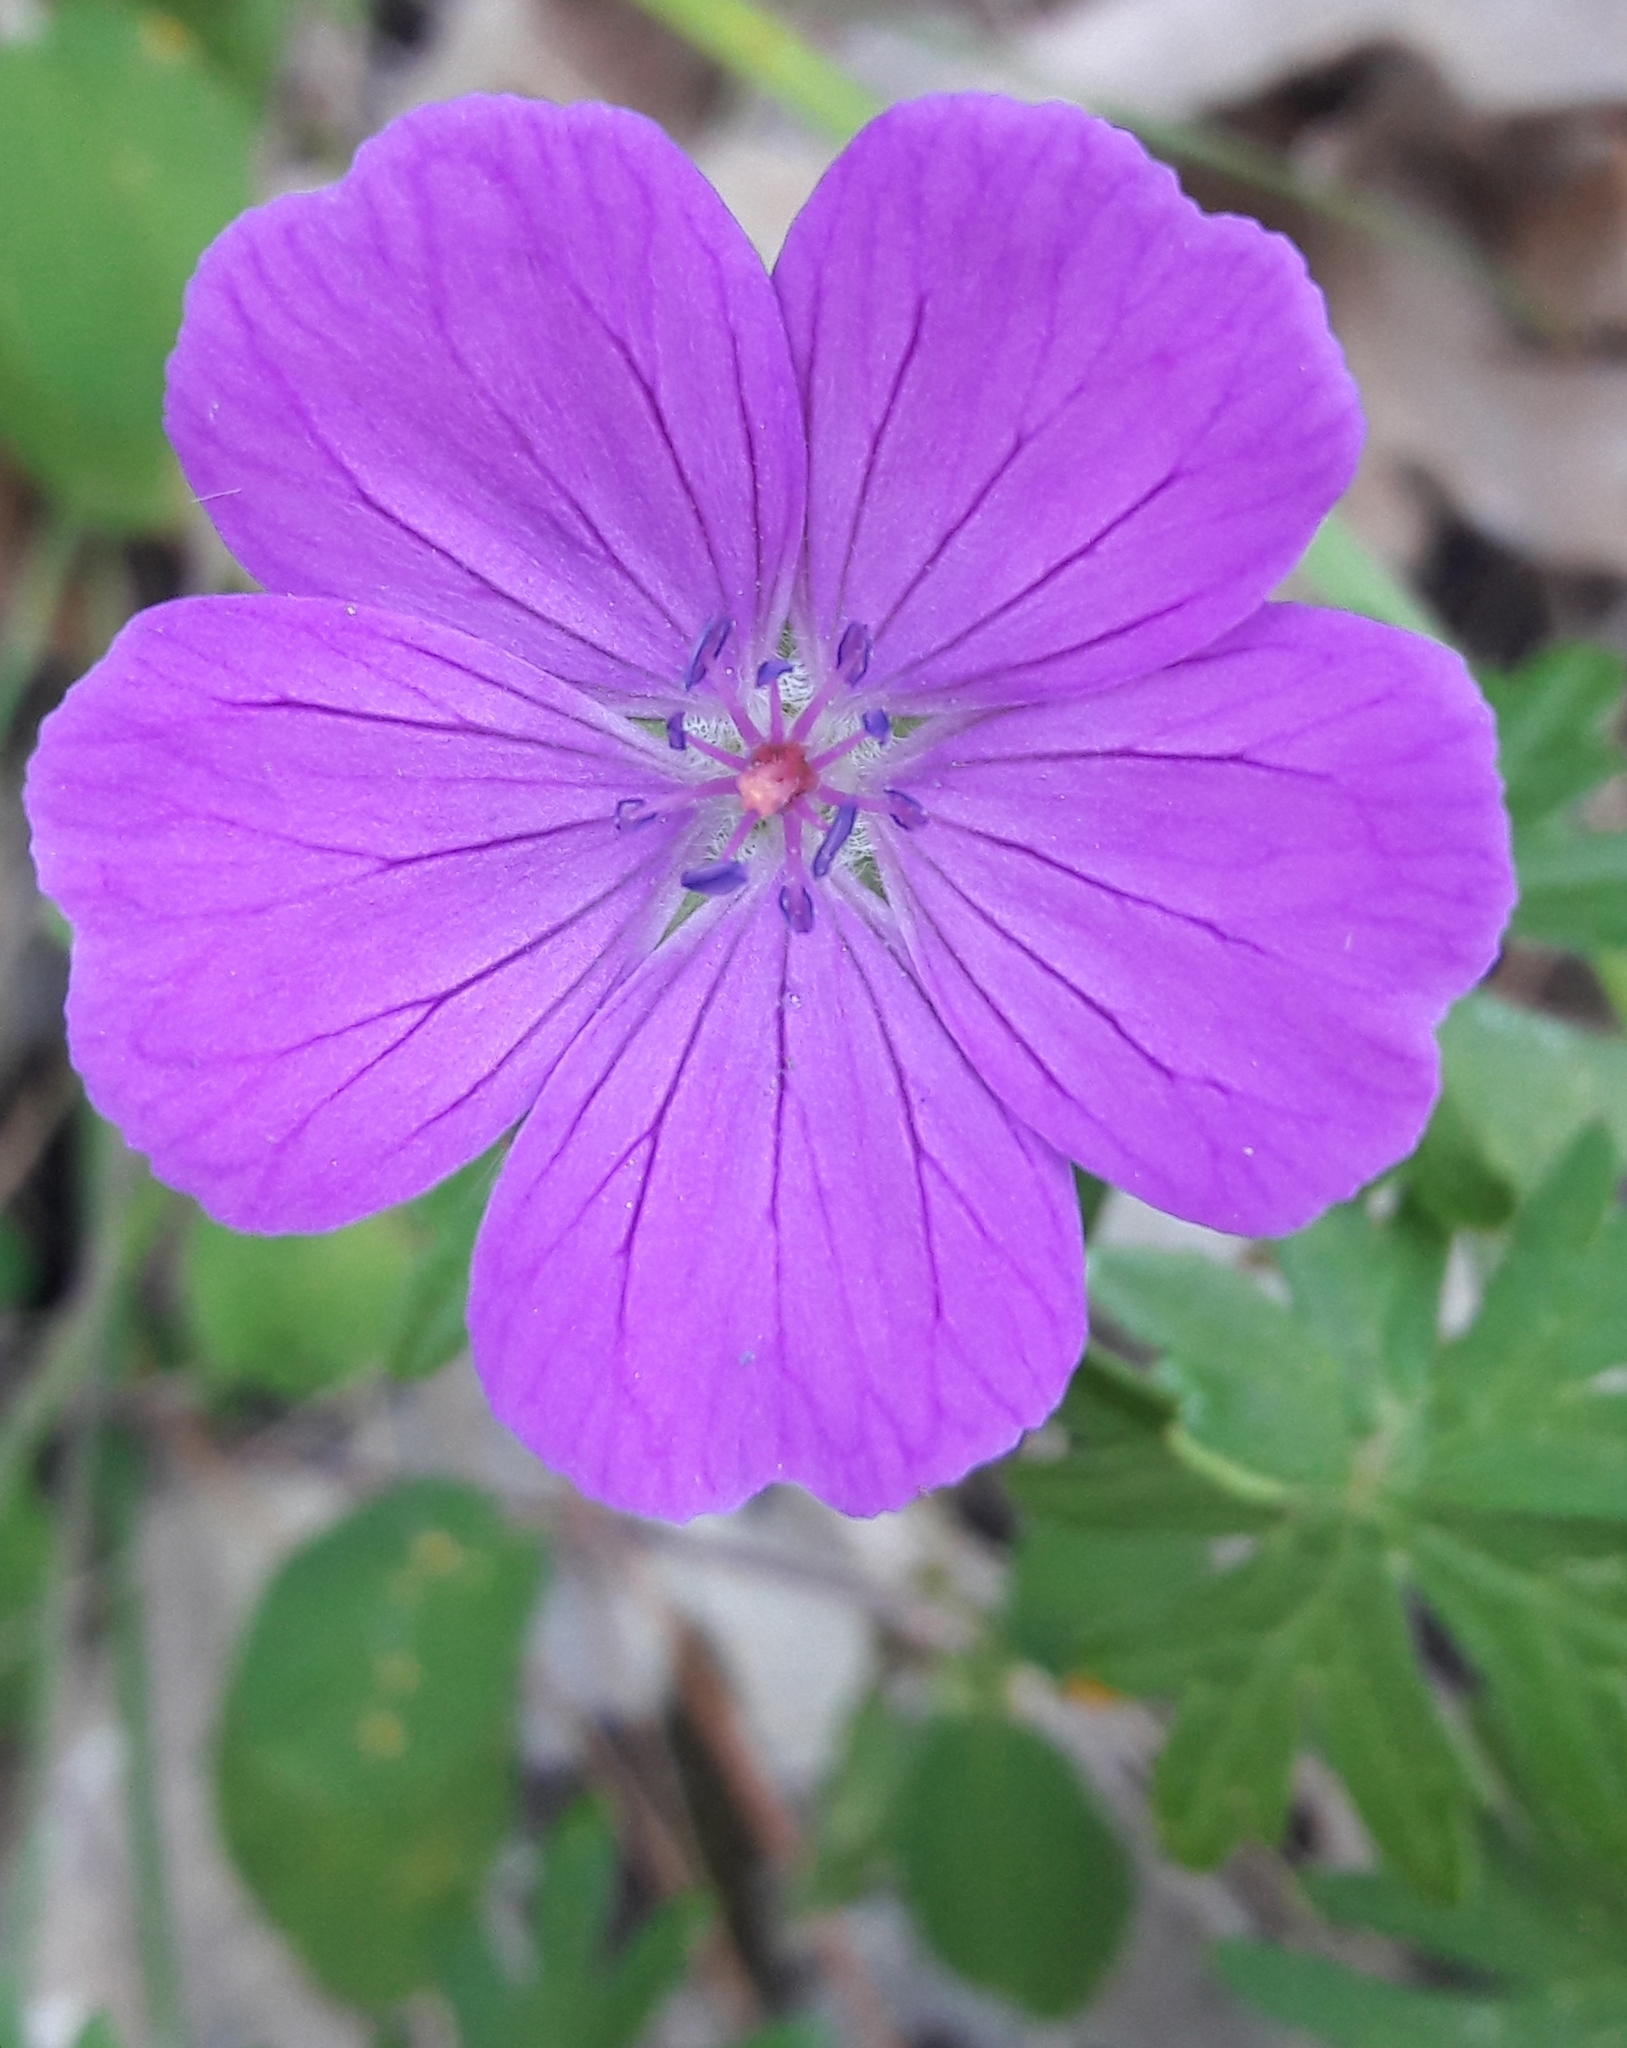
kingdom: Plantae
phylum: Tracheophyta
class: Magnoliopsida
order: Geraniales
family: Geraniaceae
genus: Geranium
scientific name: Geranium sanguineum
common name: Bloody crane's-bill
